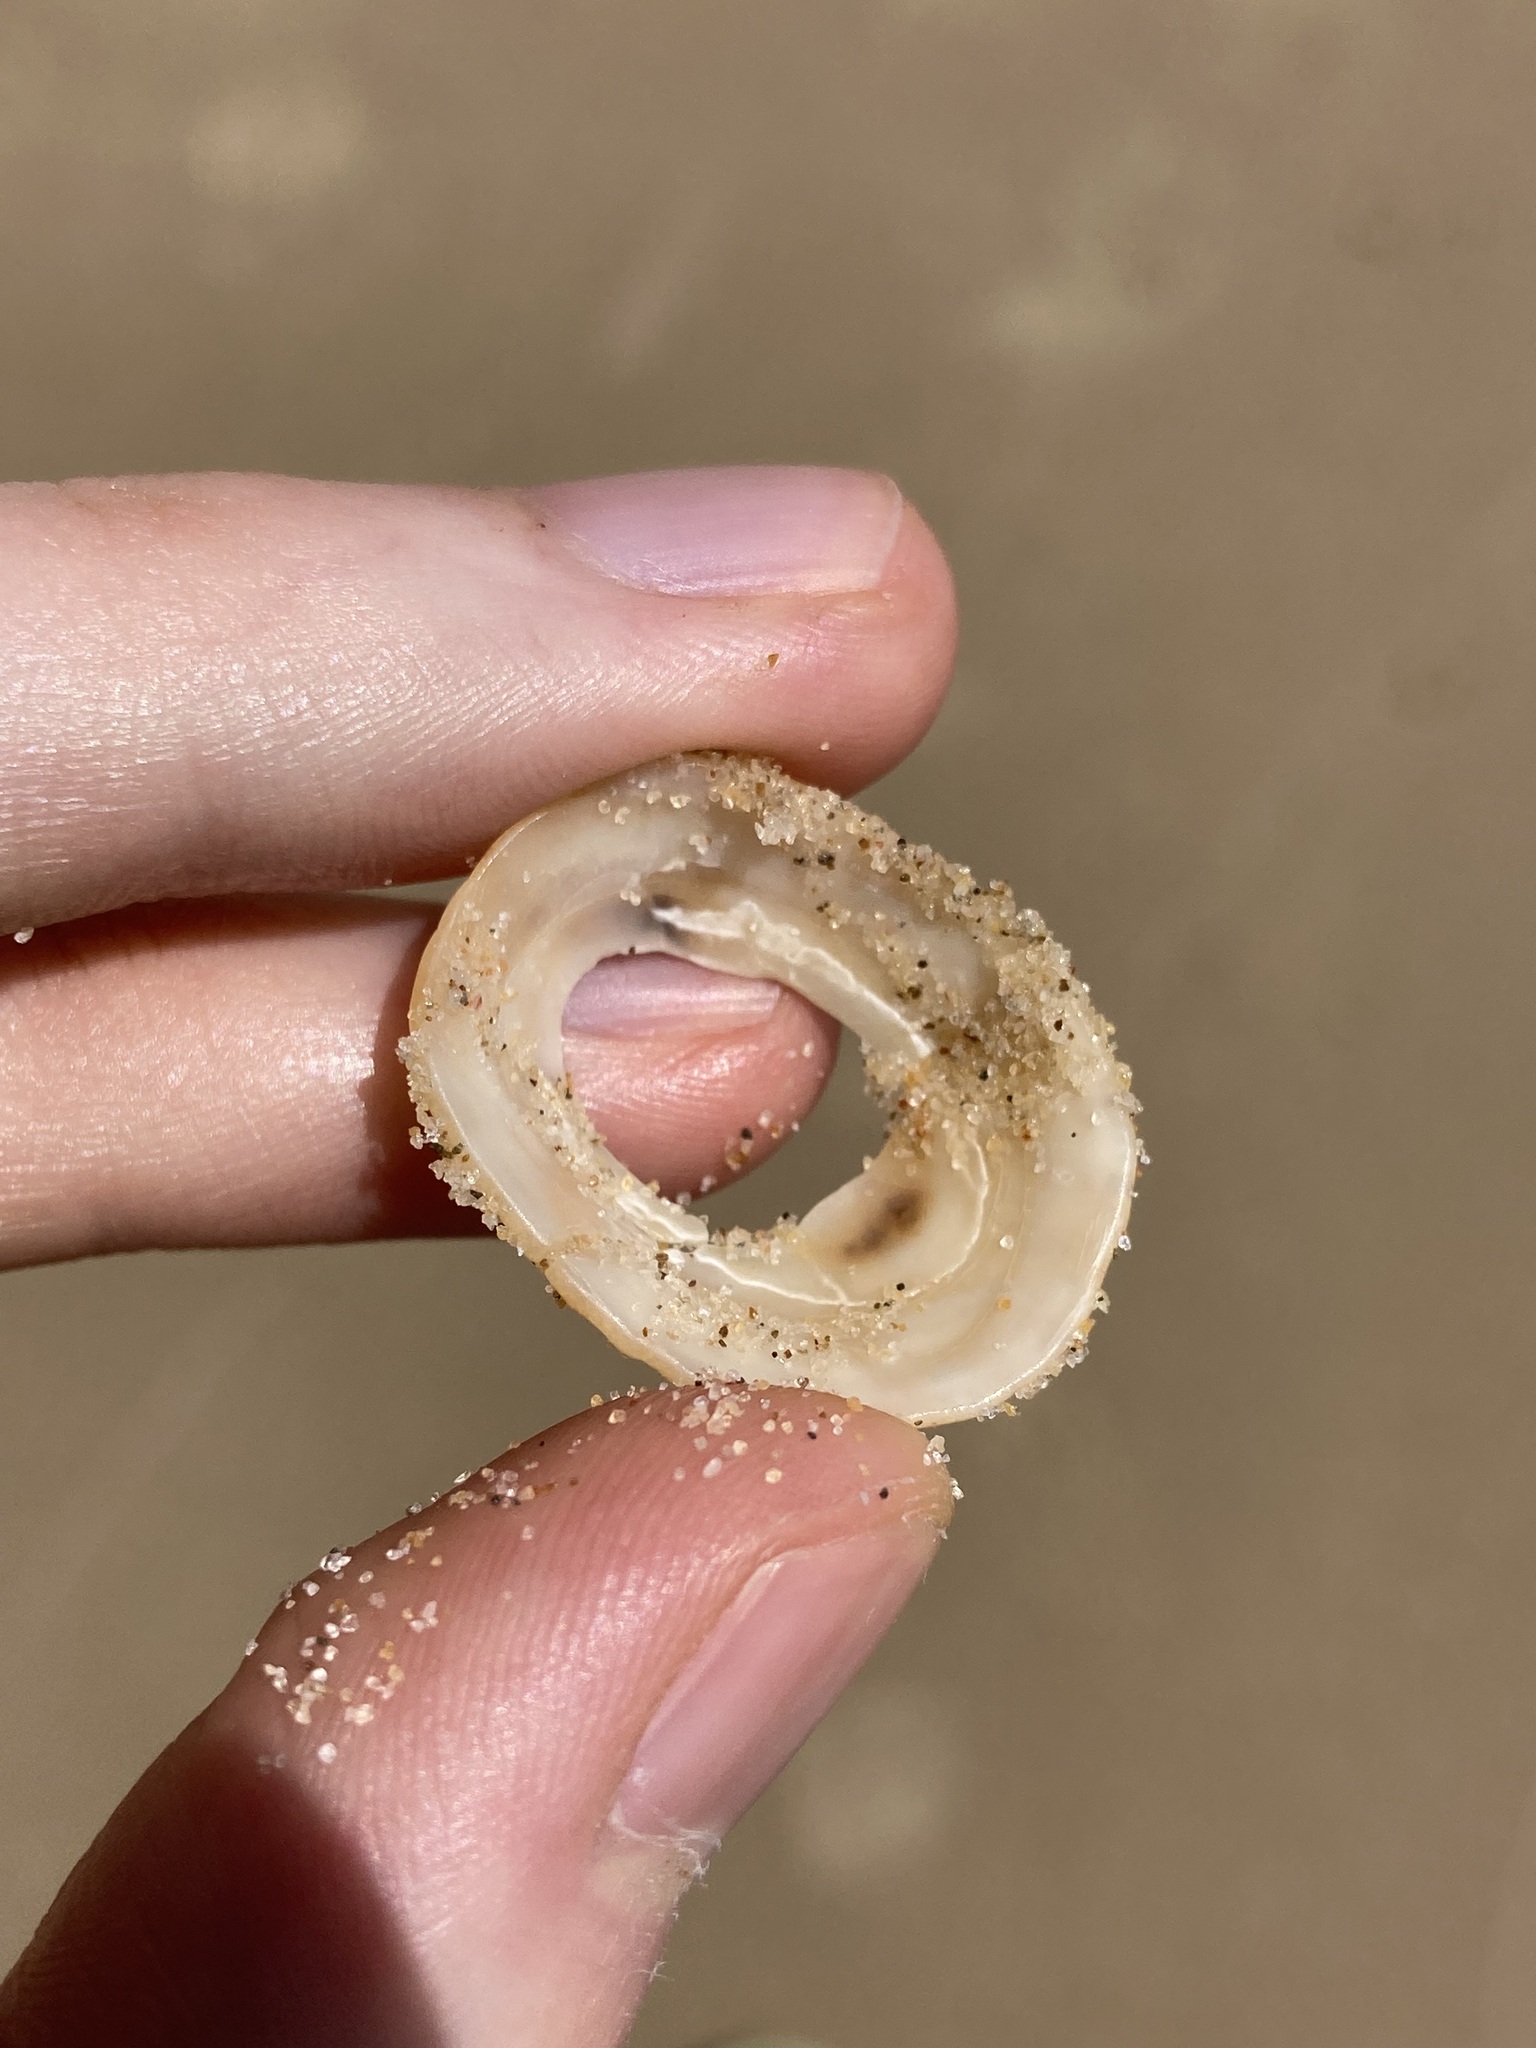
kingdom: Animalia
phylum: Mollusca
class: Gastropoda
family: Patellidae
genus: Scutellastra
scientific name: Scutellastra peronii
